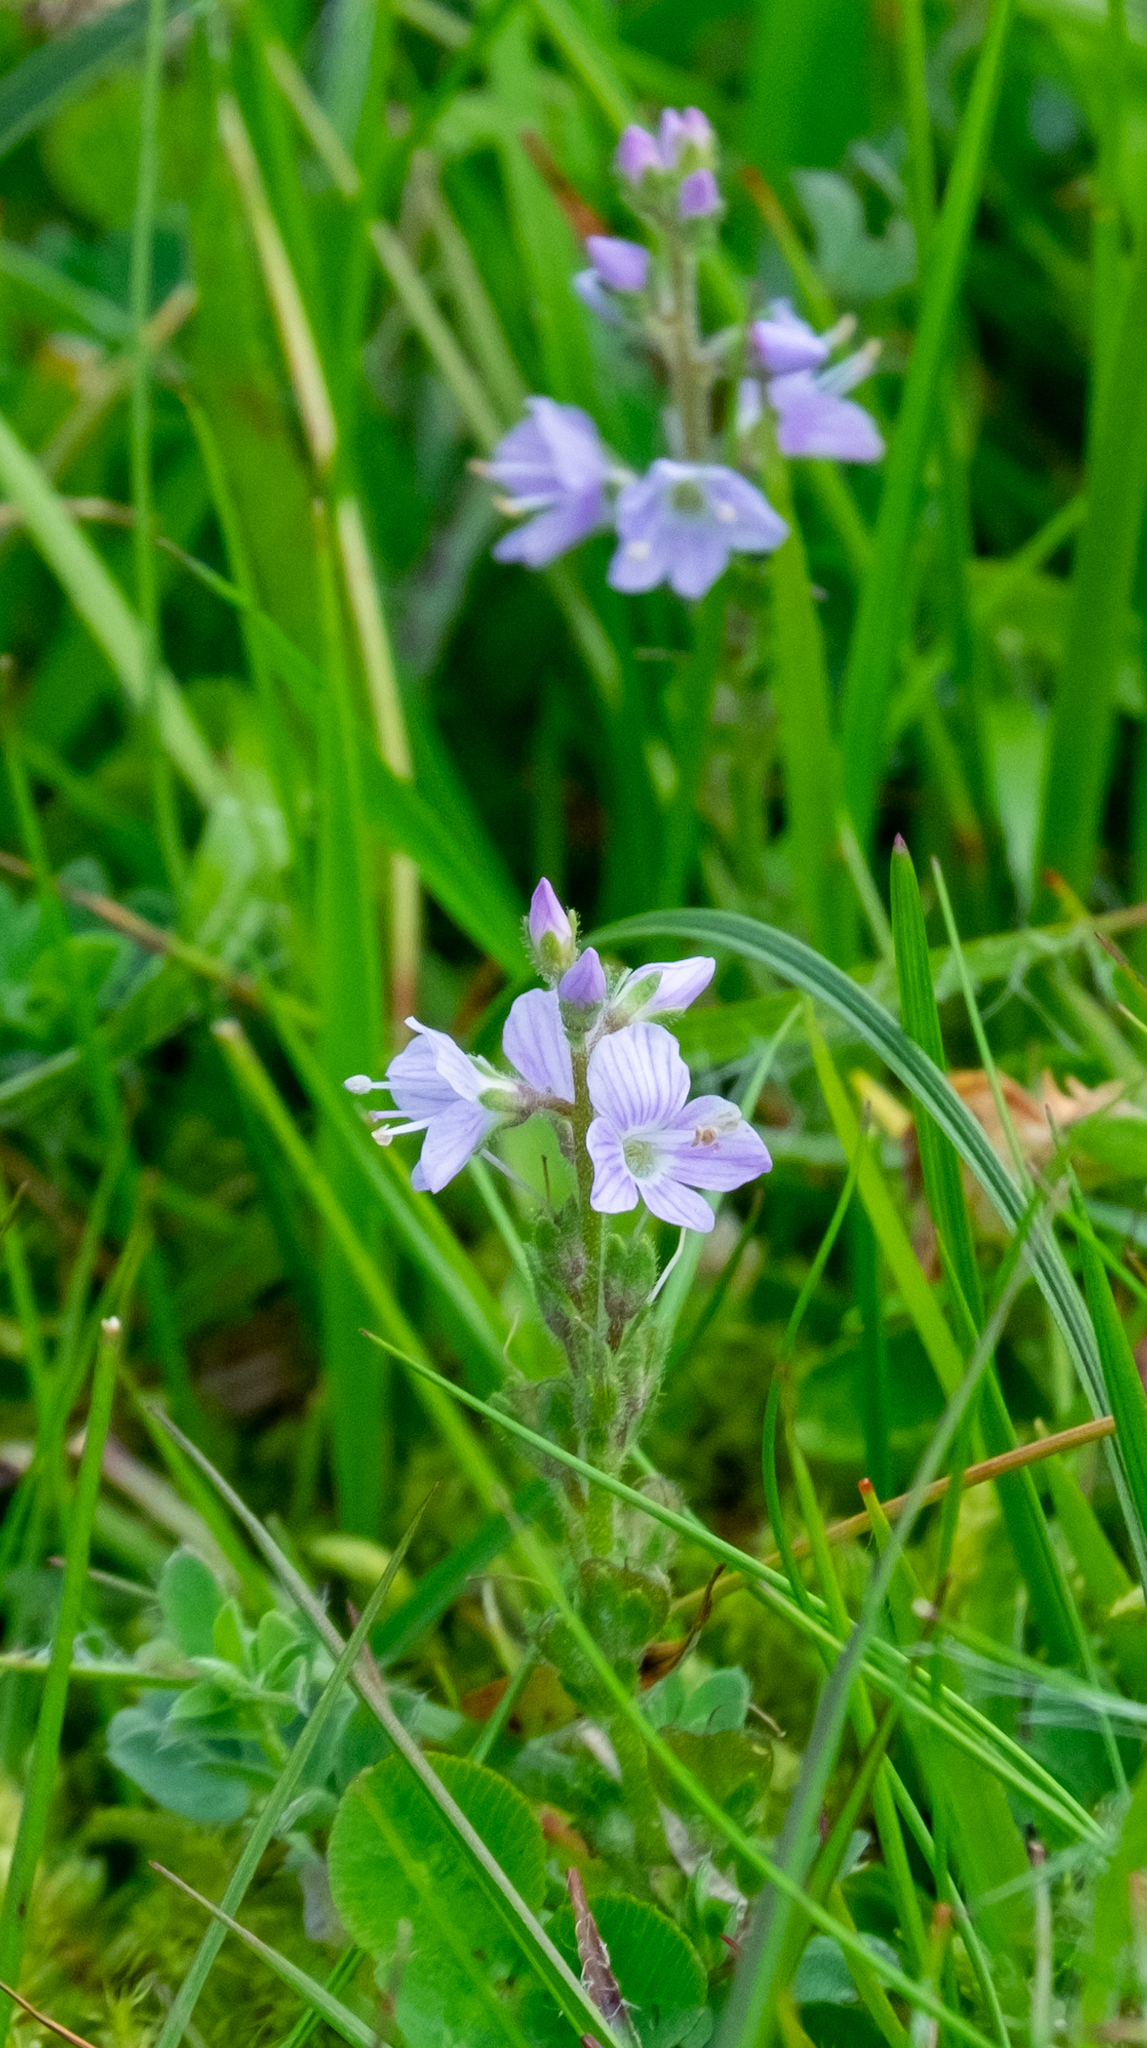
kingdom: Plantae
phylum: Tracheophyta
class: Magnoliopsida
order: Lamiales
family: Plantaginaceae
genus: Veronica
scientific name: Veronica officinalis
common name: Common speedwell
